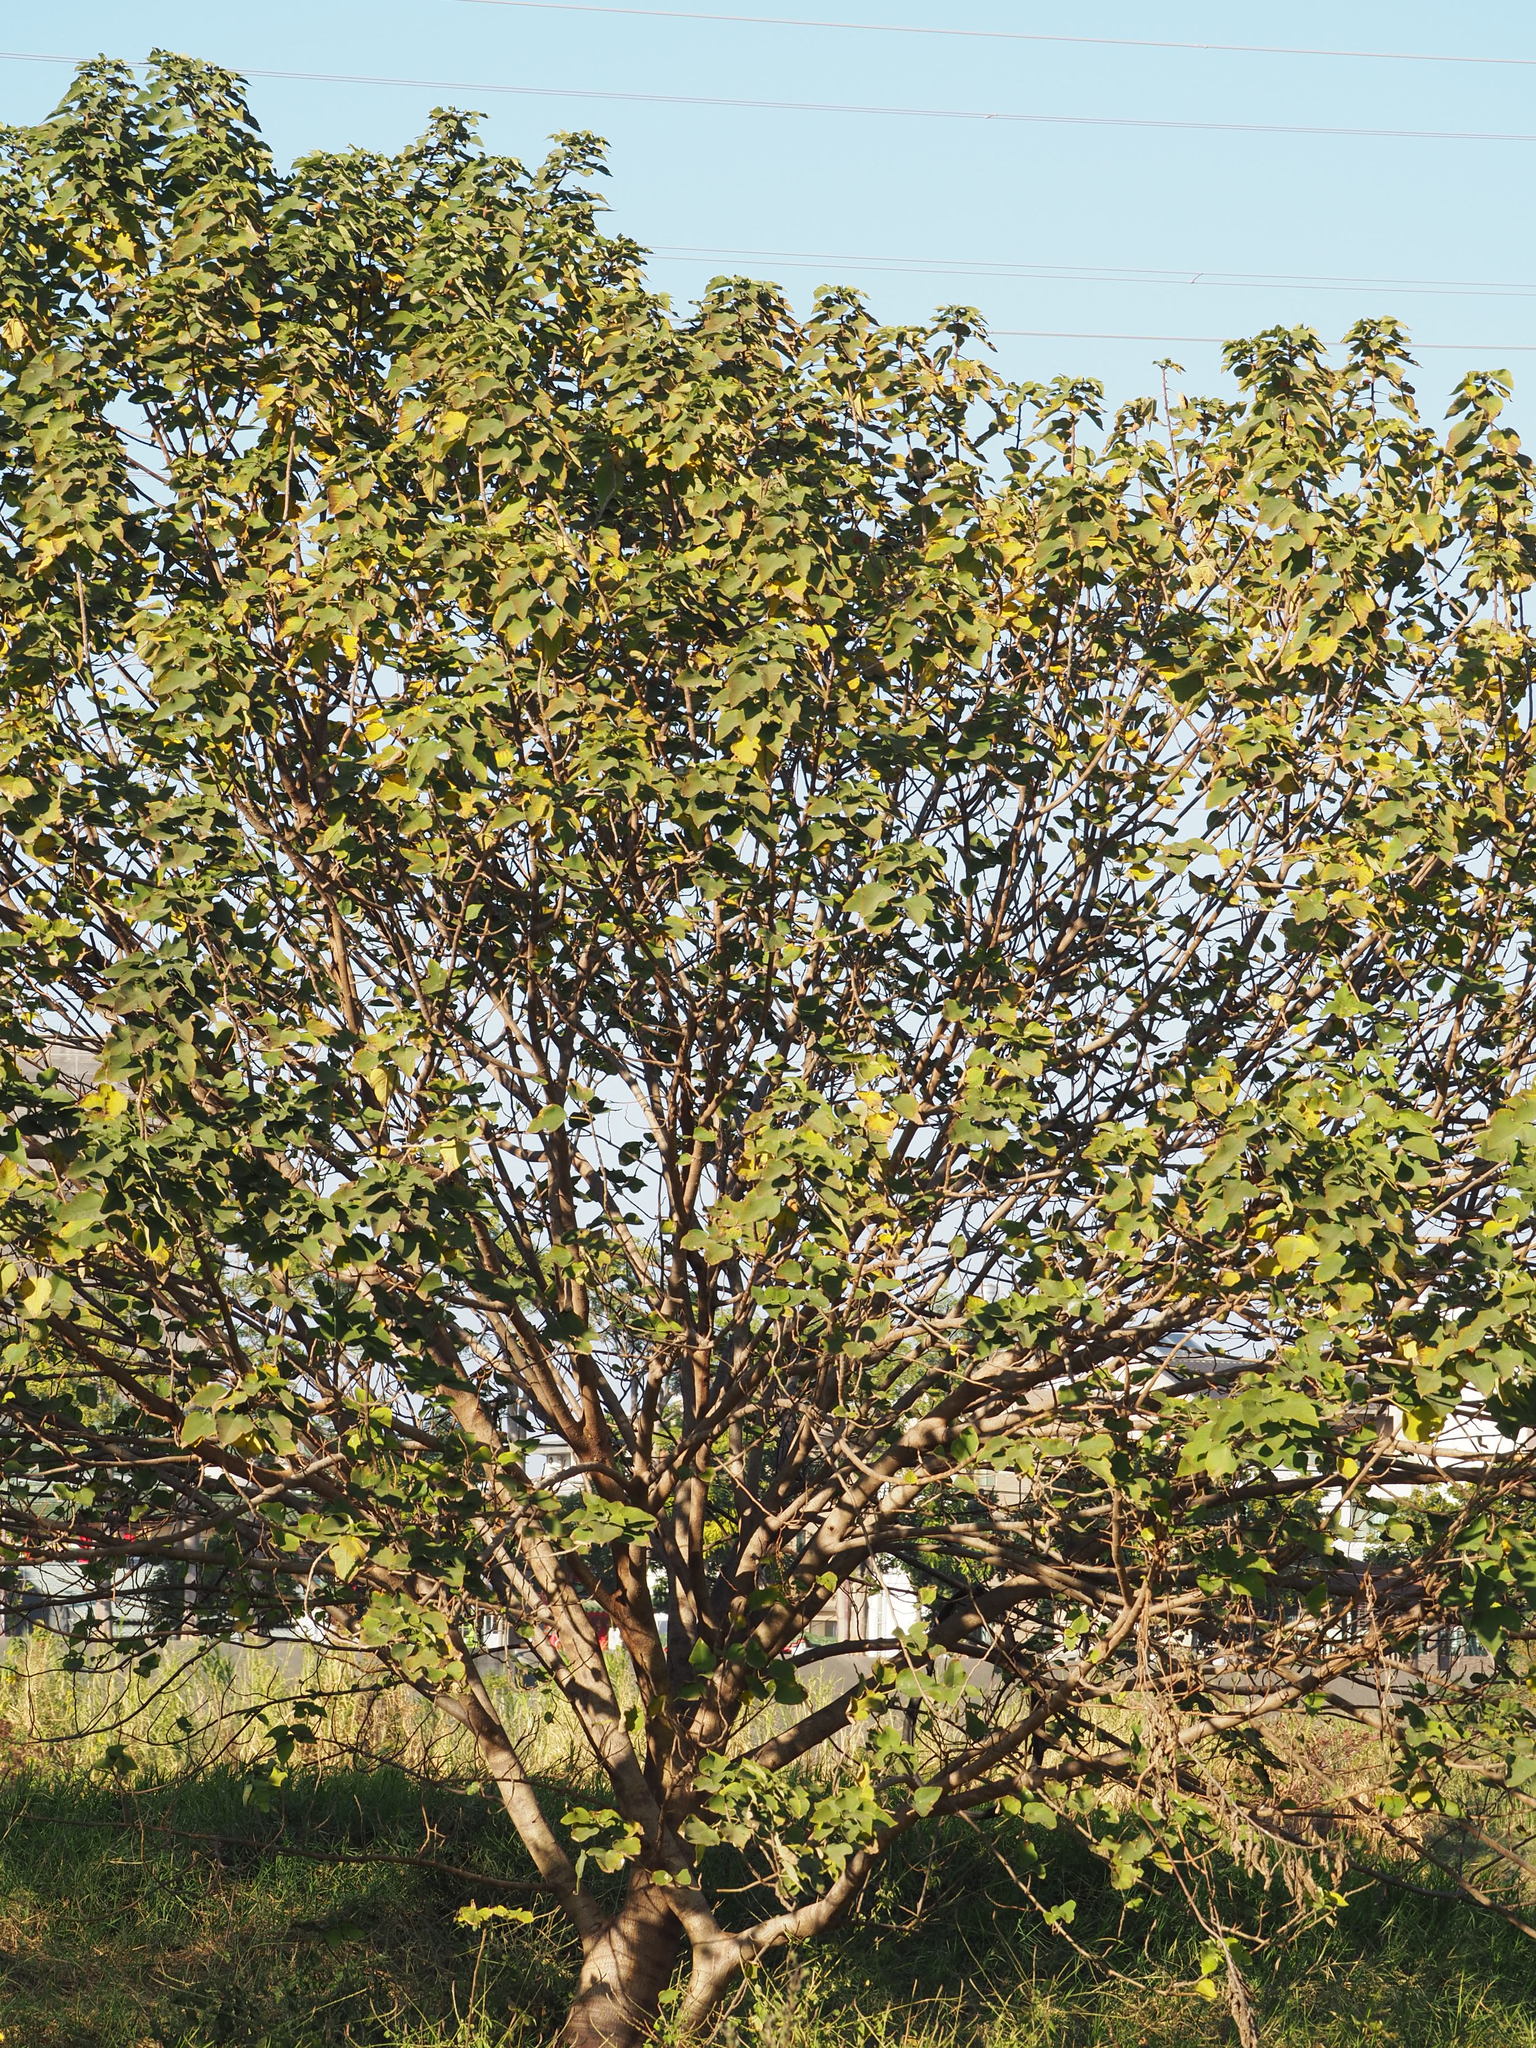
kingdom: Plantae
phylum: Tracheophyta
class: Magnoliopsida
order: Rosales
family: Moraceae
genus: Broussonetia
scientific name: Broussonetia papyrifera
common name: Paper mulberry
